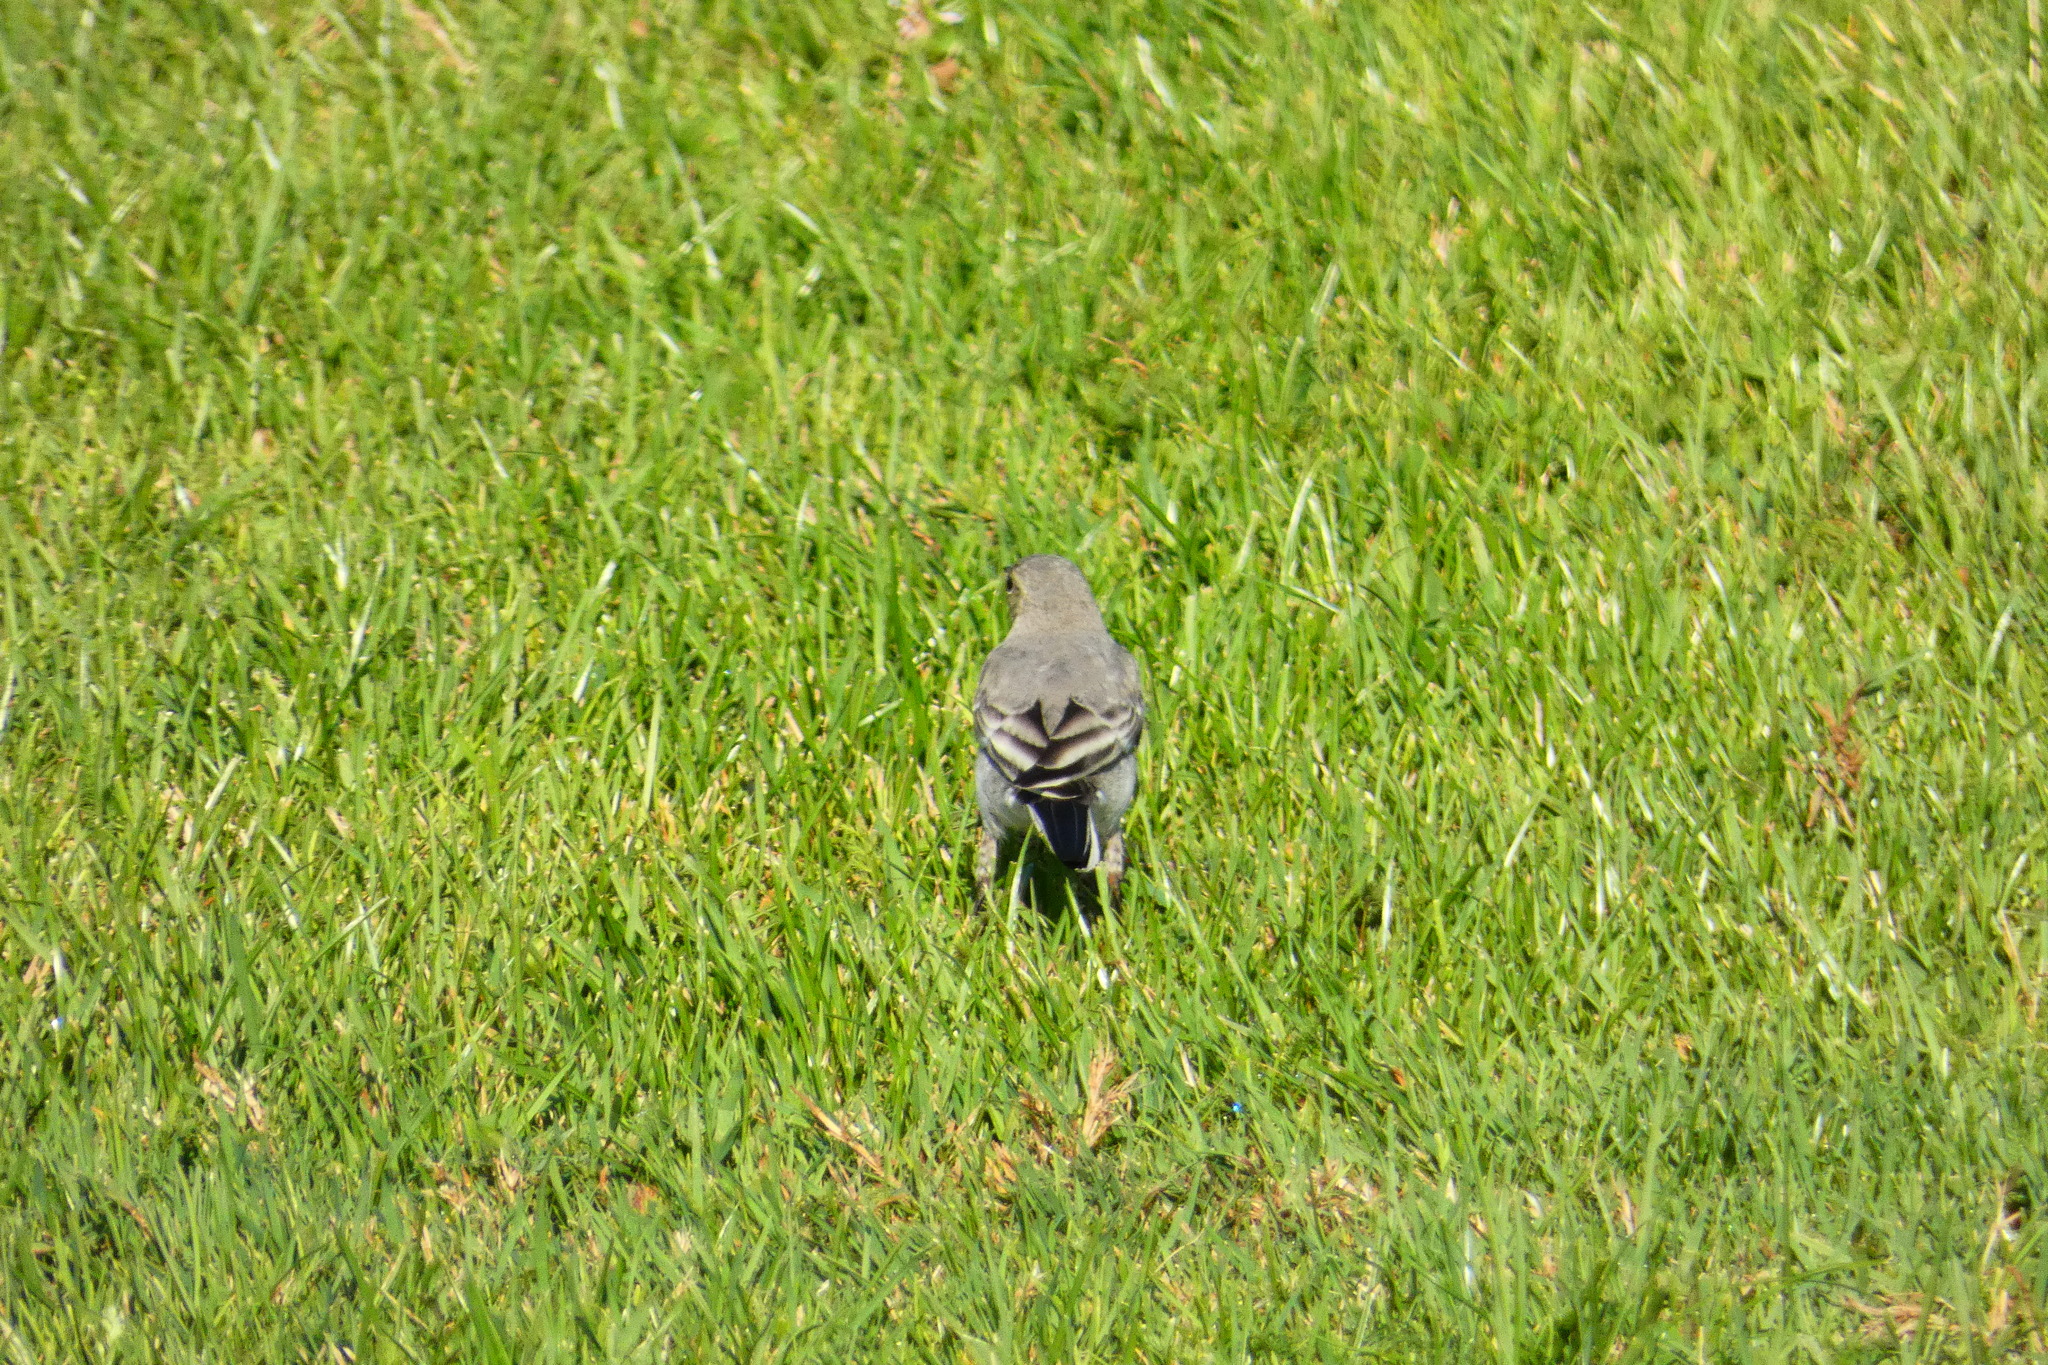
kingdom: Animalia
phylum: Chordata
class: Aves
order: Passeriformes
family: Motacillidae
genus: Motacilla
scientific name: Motacilla alba
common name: White wagtail
